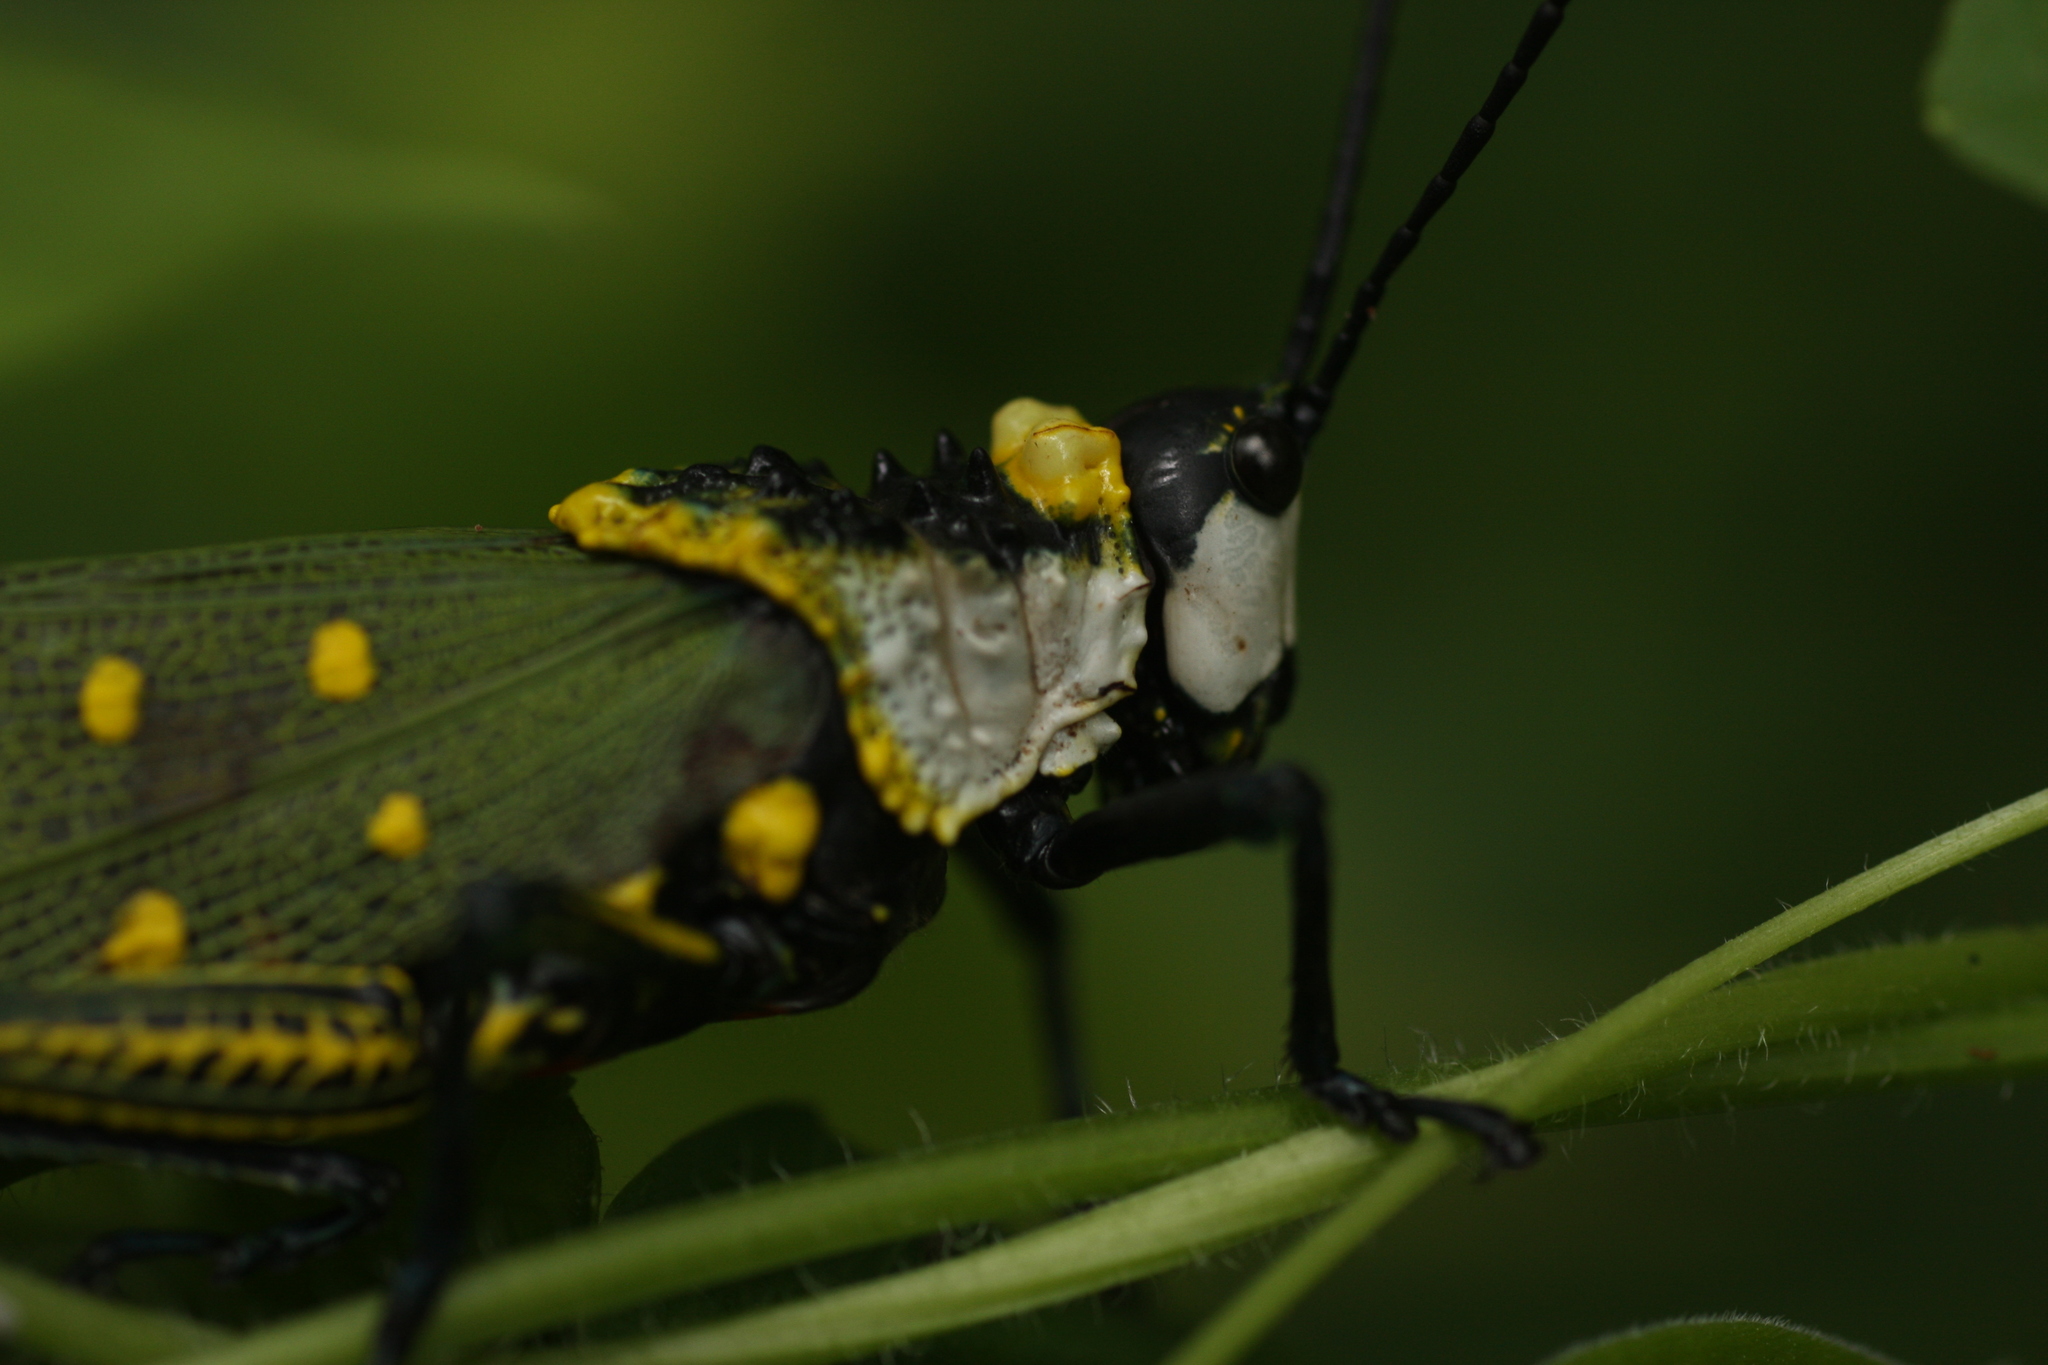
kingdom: Animalia
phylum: Arthropoda
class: Insecta
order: Orthoptera
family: Pyrgomorphidae
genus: Aularches
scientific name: Aularches miliaris
